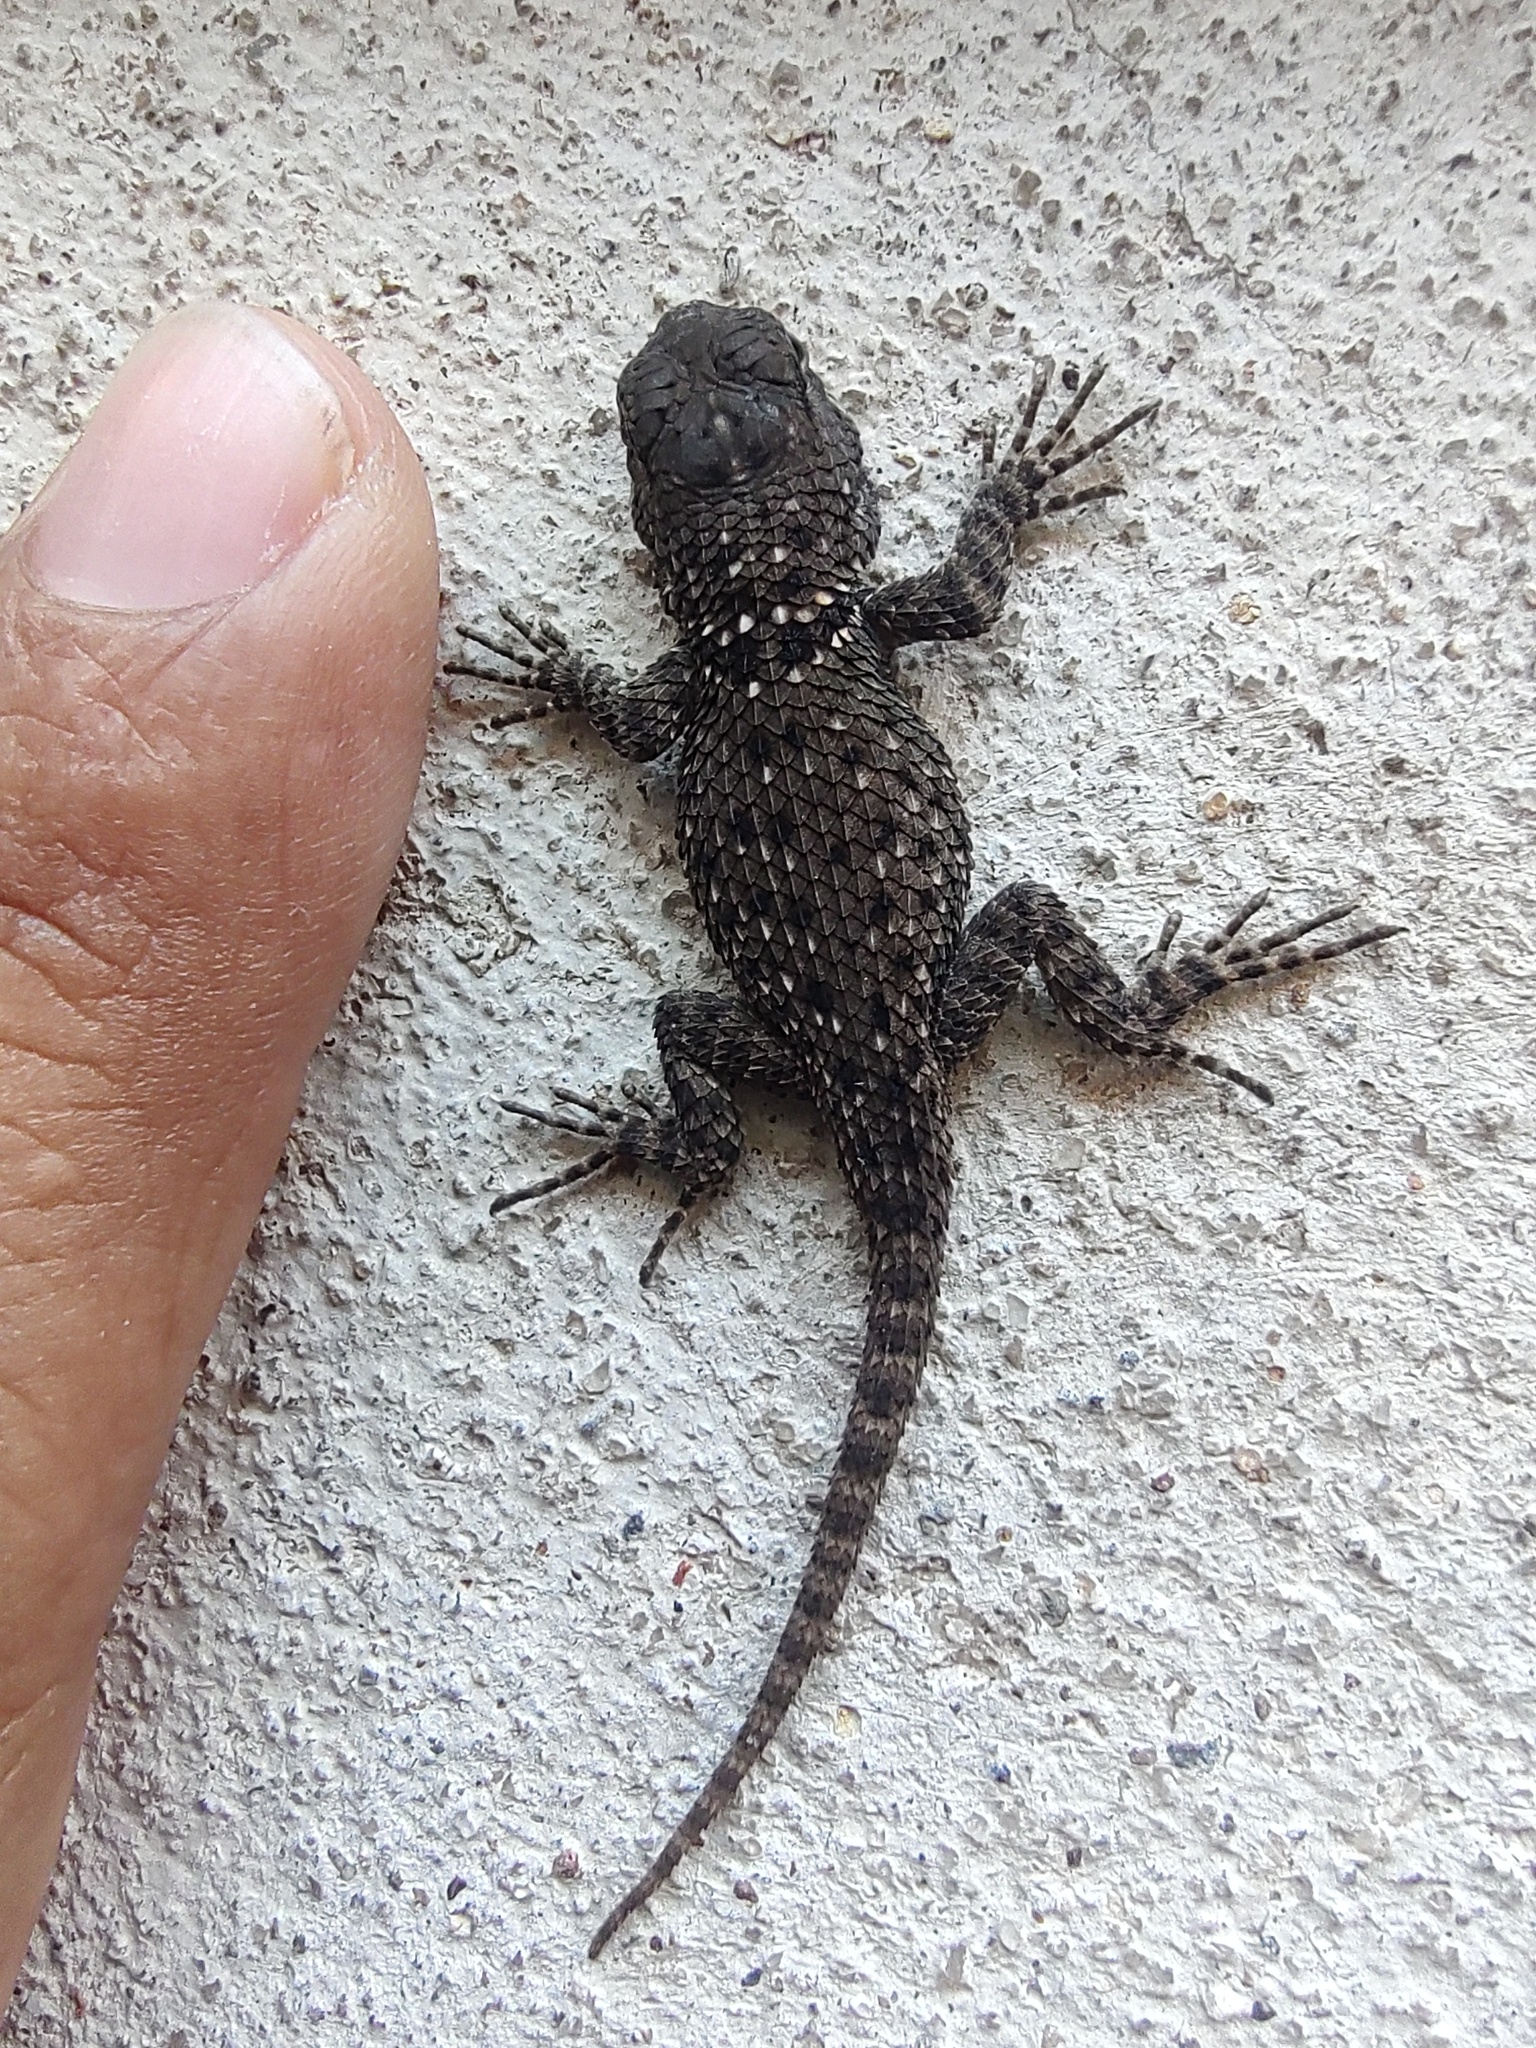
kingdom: Animalia
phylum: Chordata
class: Squamata
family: Phrynosomatidae
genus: Sceloporus
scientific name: Sceloporus torquatus
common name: Central plateau torquate lizard [melanogaster]
